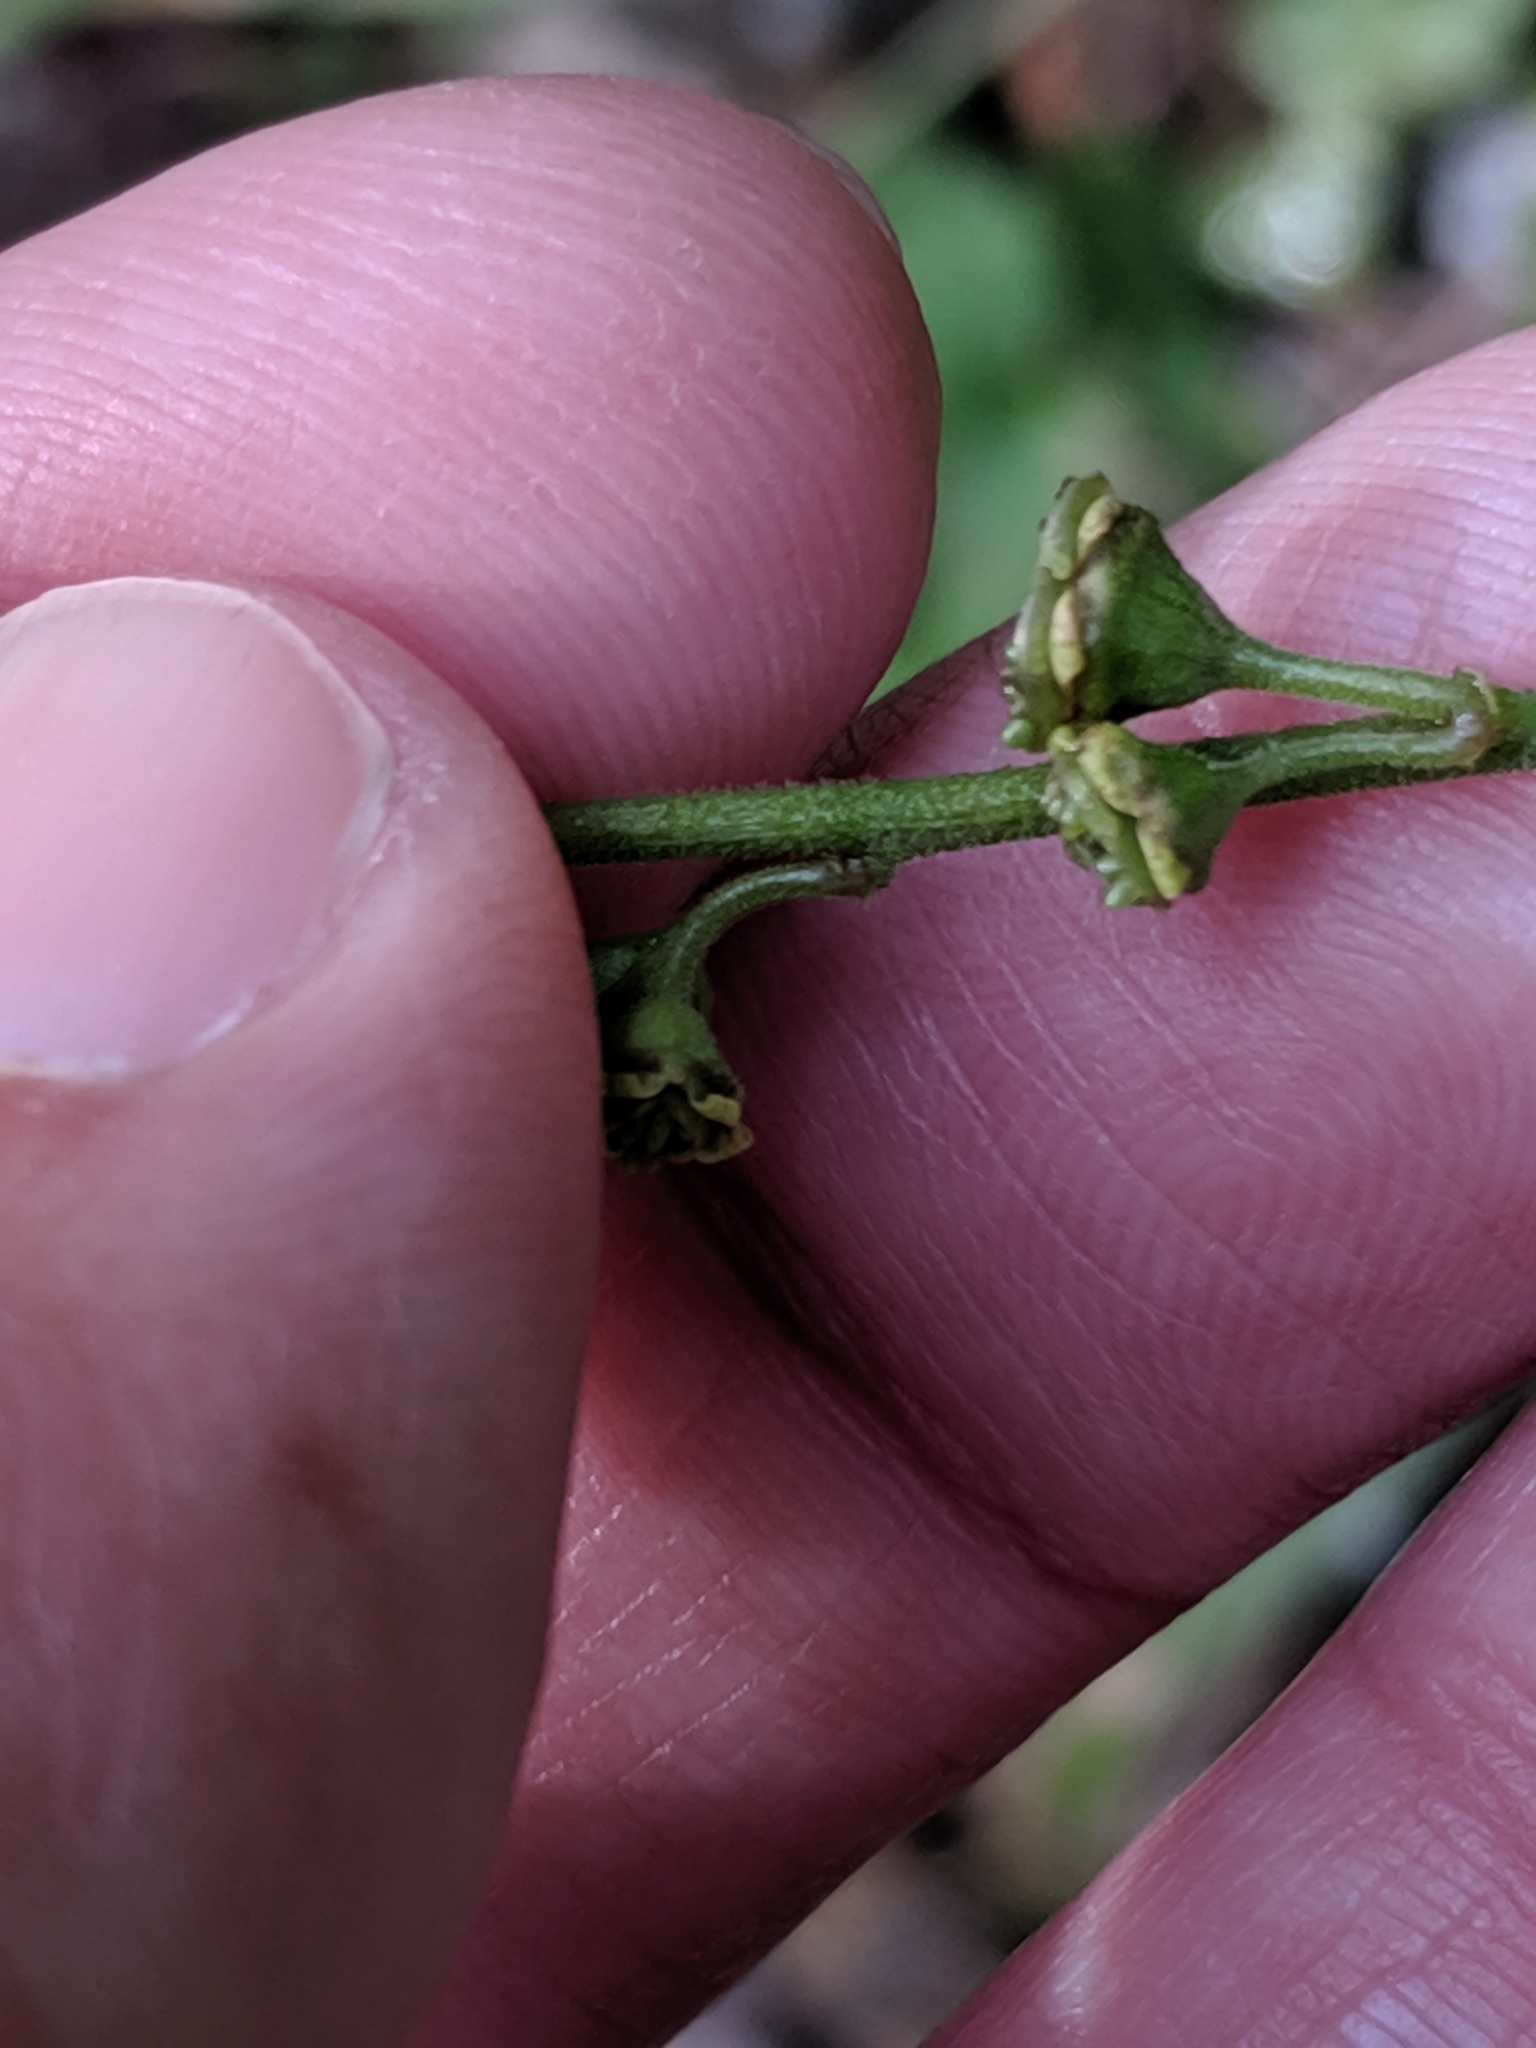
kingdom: Plantae
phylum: Tracheophyta
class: Magnoliopsida
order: Saxifragales
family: Saxifragaceae
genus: Pectiantia
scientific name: Pectiantia pentandra
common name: Alpine bishop's-cap
